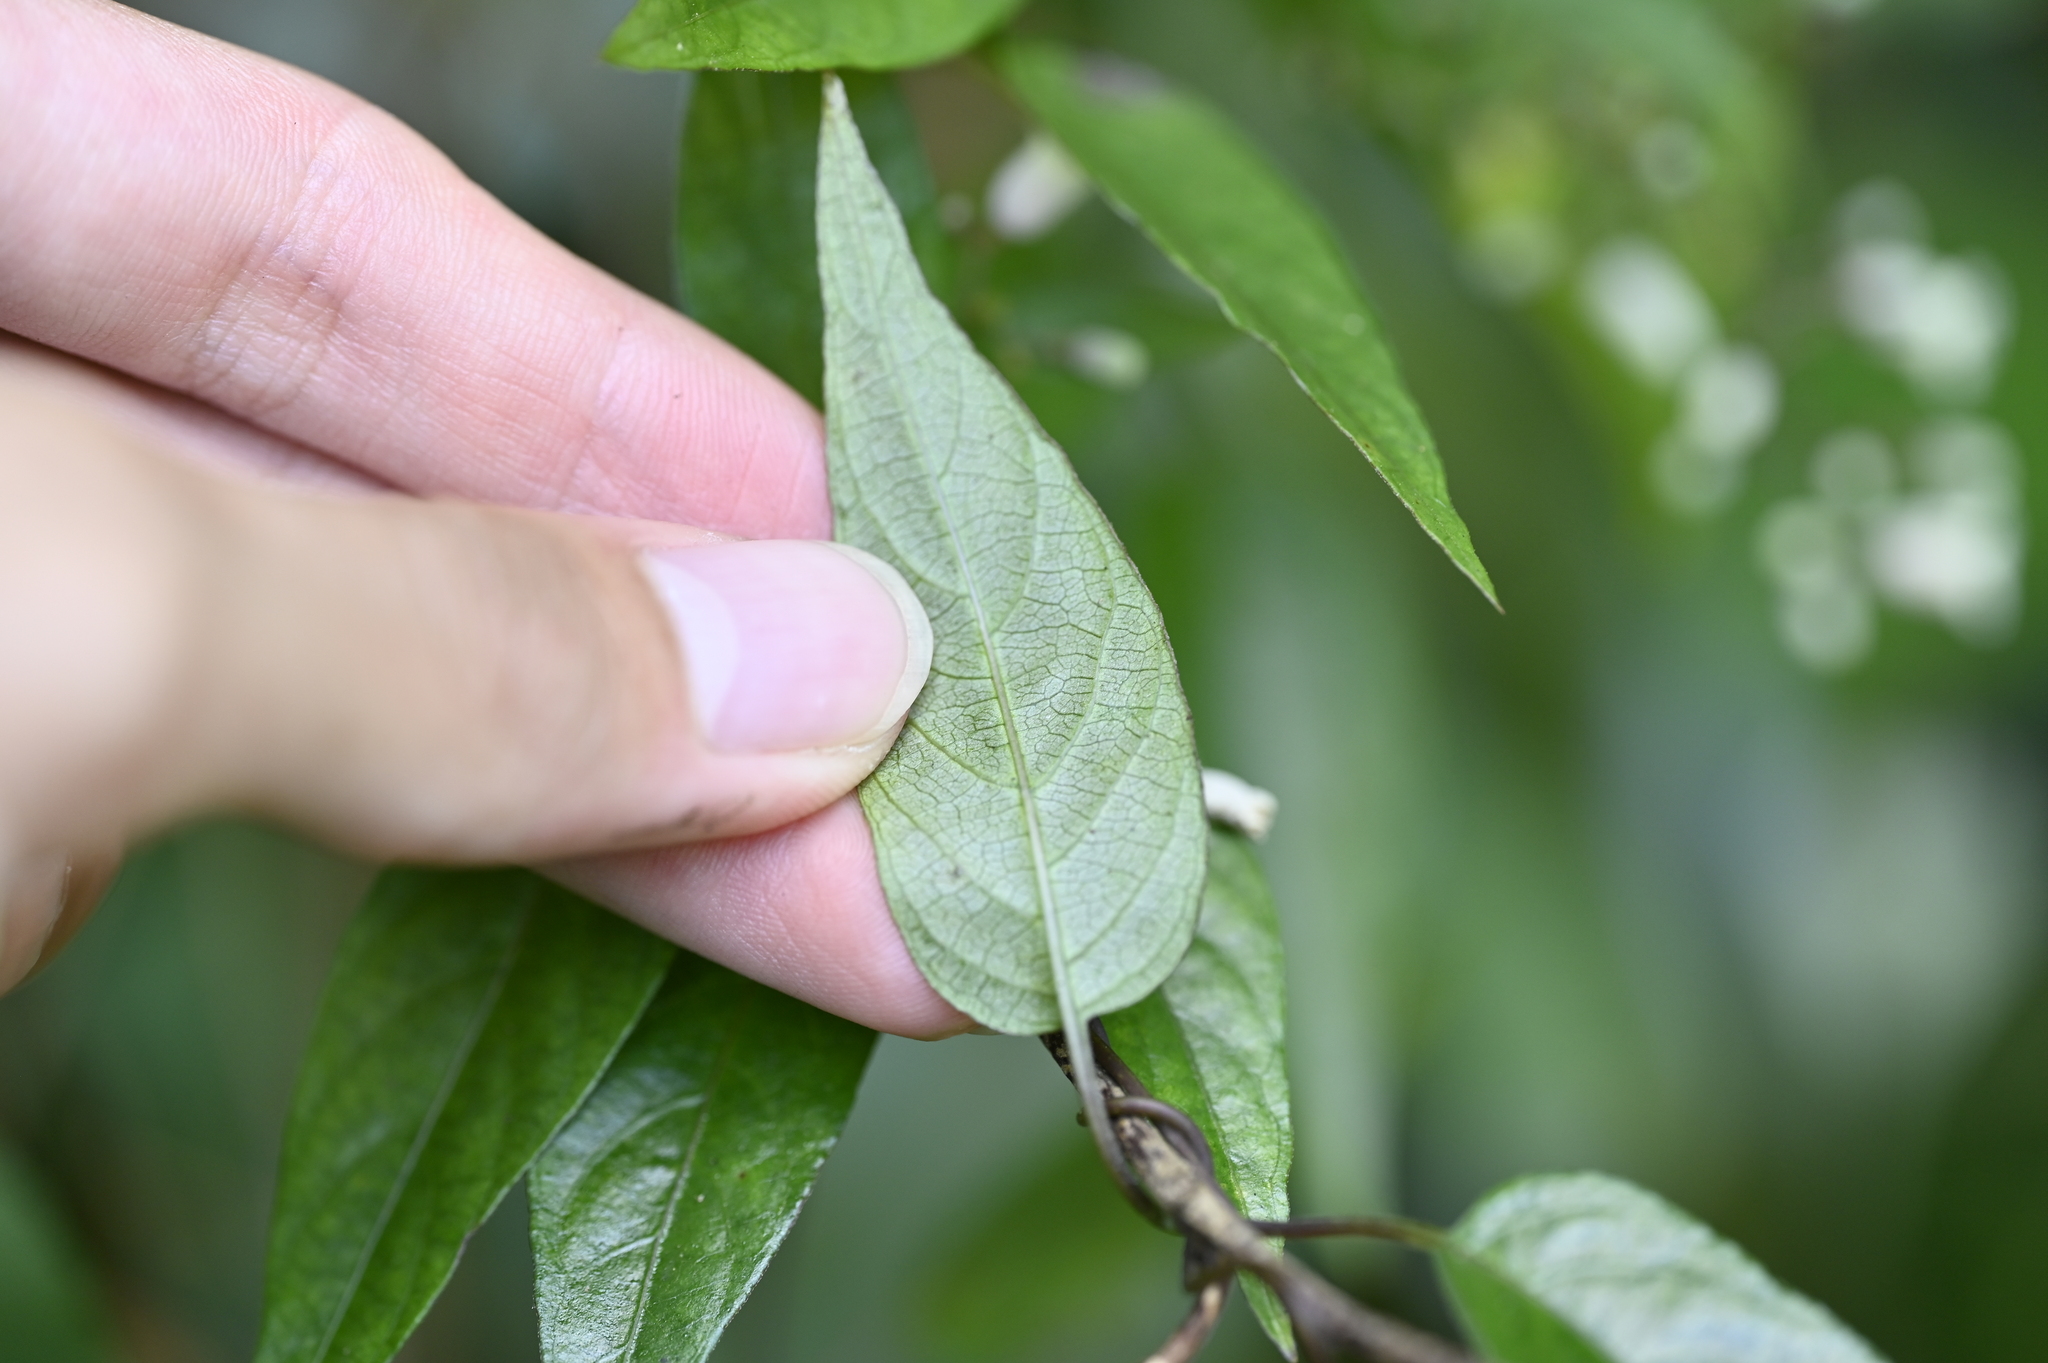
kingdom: Plantae
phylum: Tracheophyta
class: Magnoliopsida
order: Gentianales
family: Rubiaceae
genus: Paederia
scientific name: Paederia foetida
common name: Stinkvine
